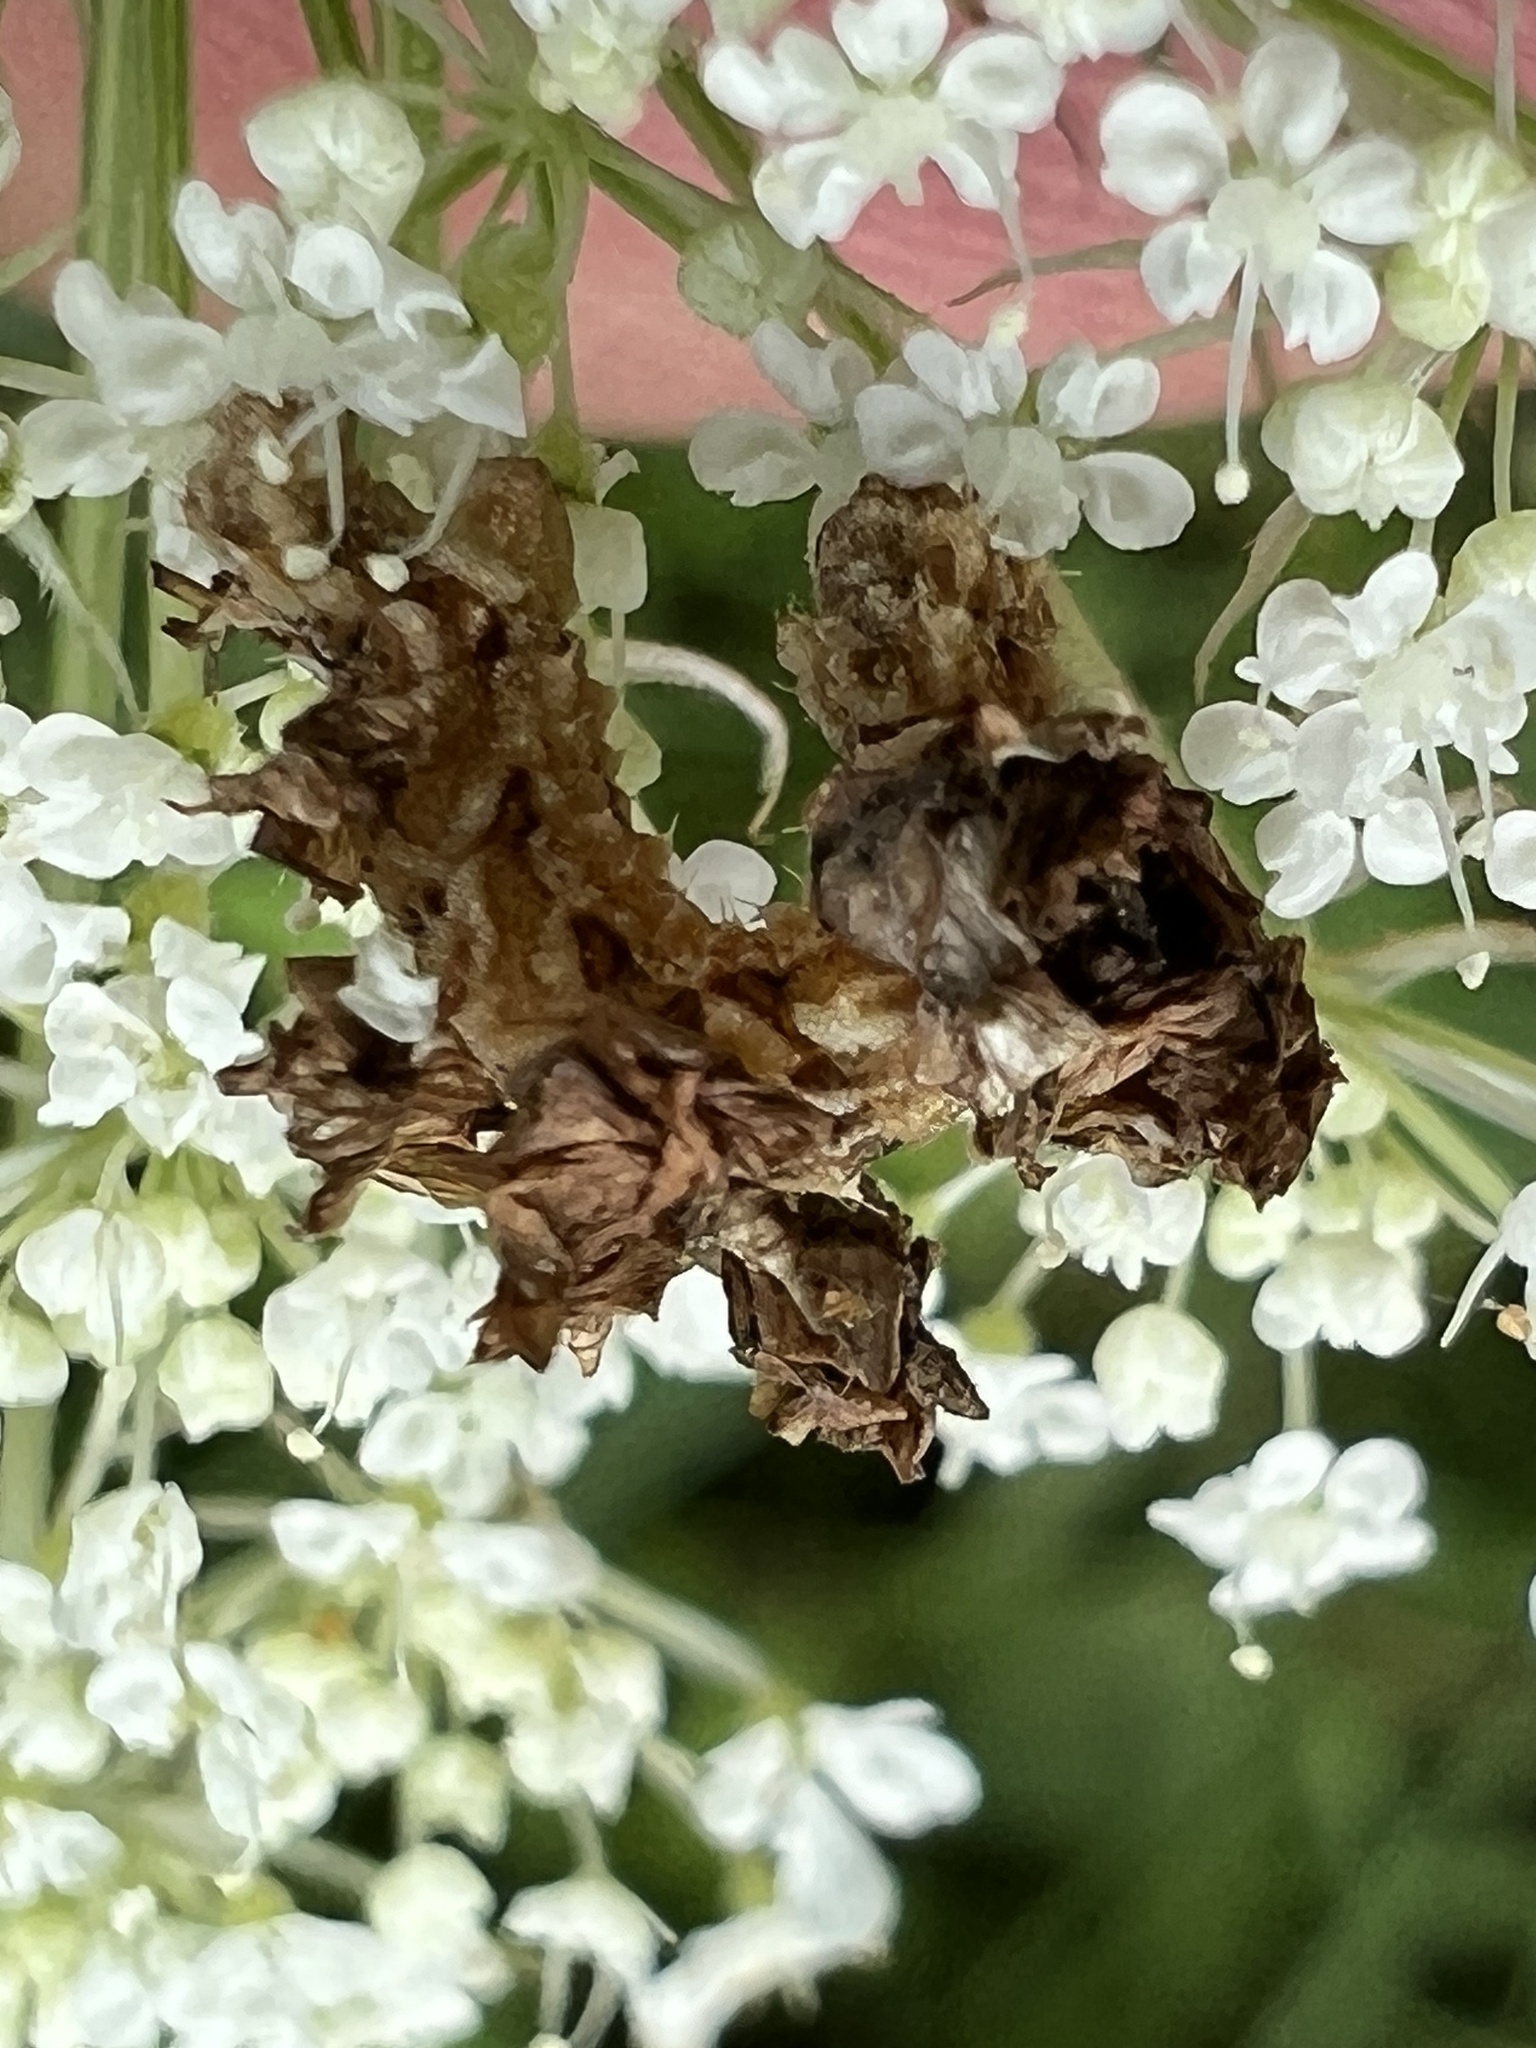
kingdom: Animalia
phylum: Arthropoda
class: Insecta
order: Lepidoptera
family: Geometridae
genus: Synchlora
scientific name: Synchlora
